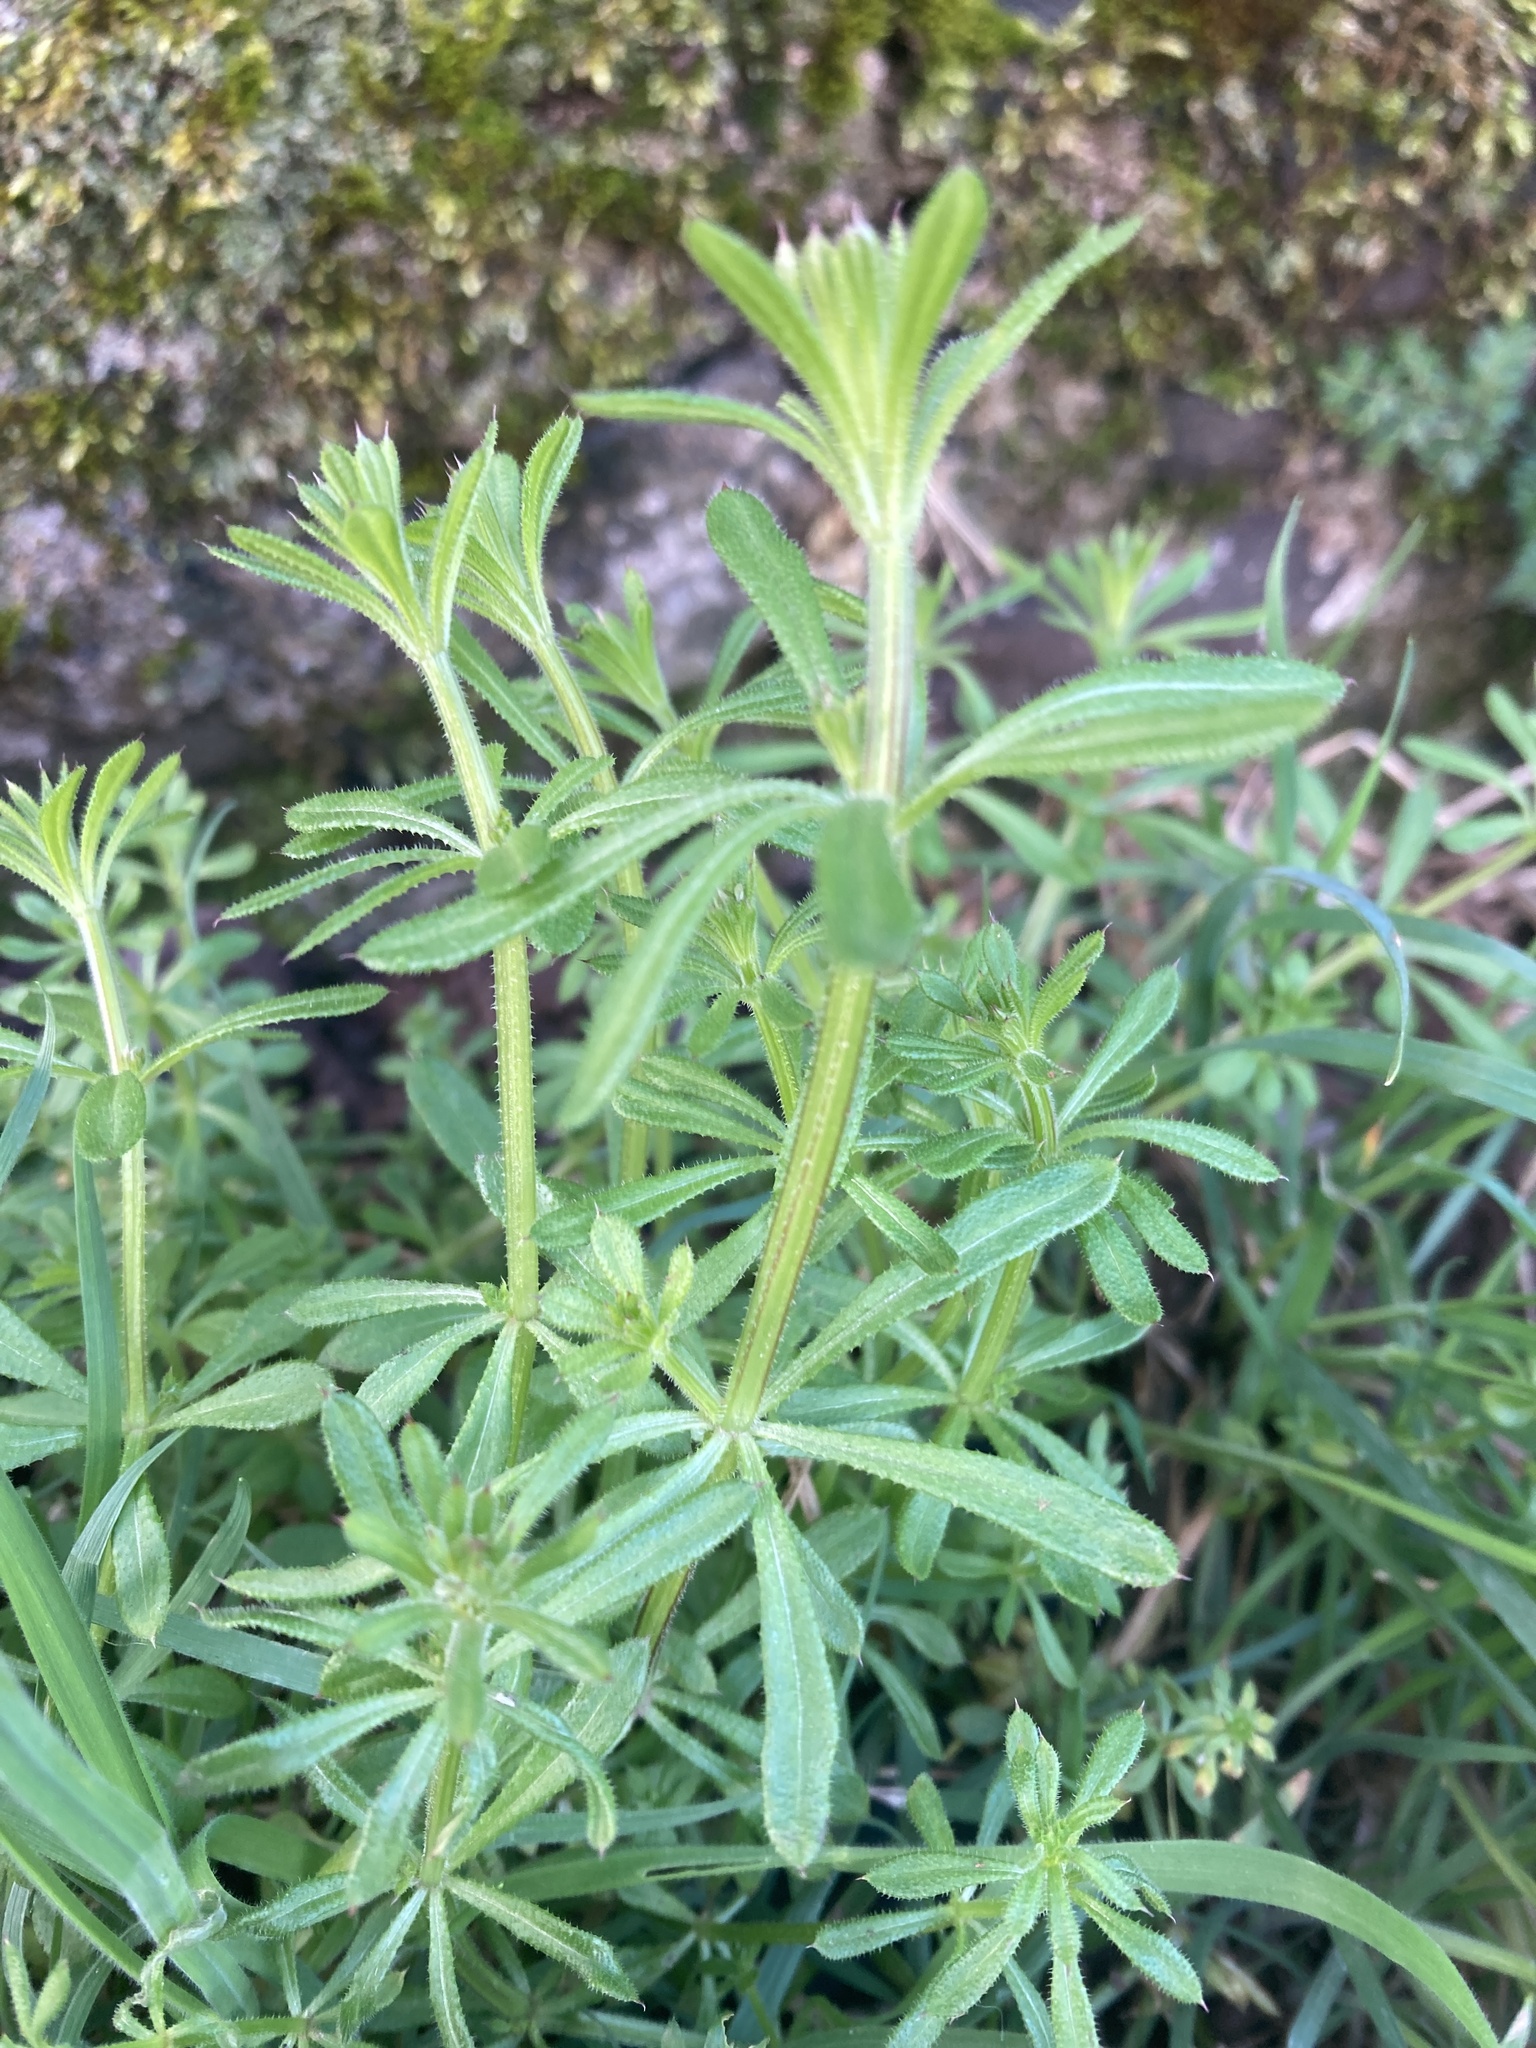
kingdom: Plantae
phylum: Tracheophyta
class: Magnoliopsida
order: Gentianales
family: Rubiaceae
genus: Galium
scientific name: Galium aparine
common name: Cleavers
